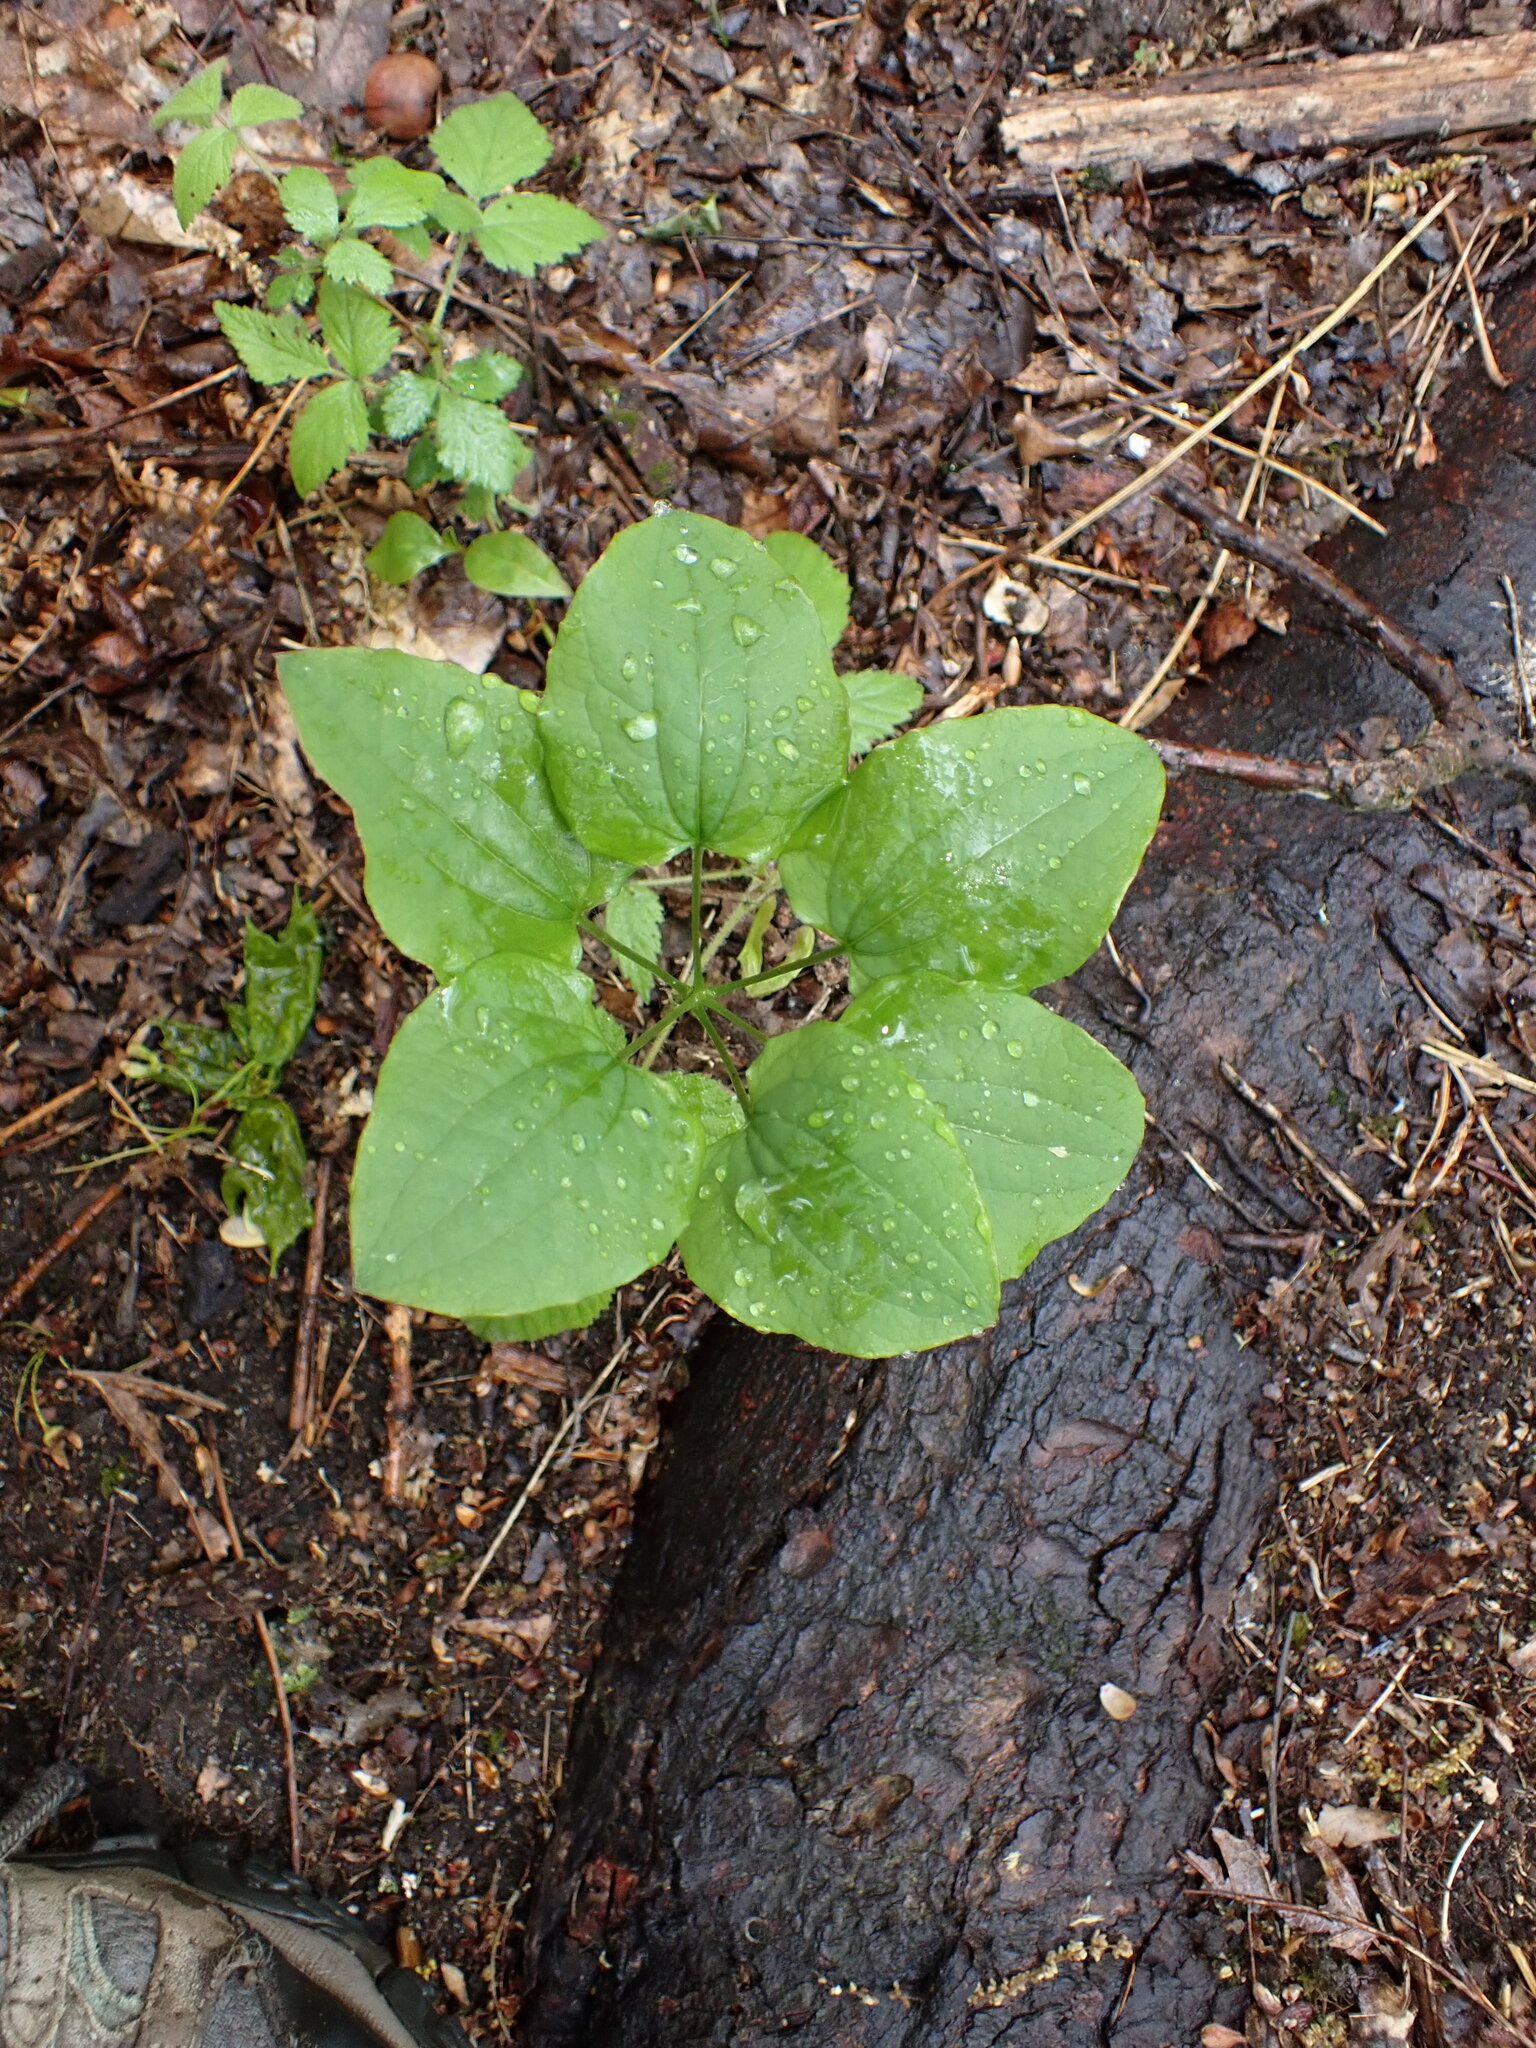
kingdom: Plantae
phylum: Tracheophyta
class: Liliopsida
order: Liliales
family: Smilacaceae
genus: Smilax
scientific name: Smilax herbacea
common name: Jacob's-ladder
